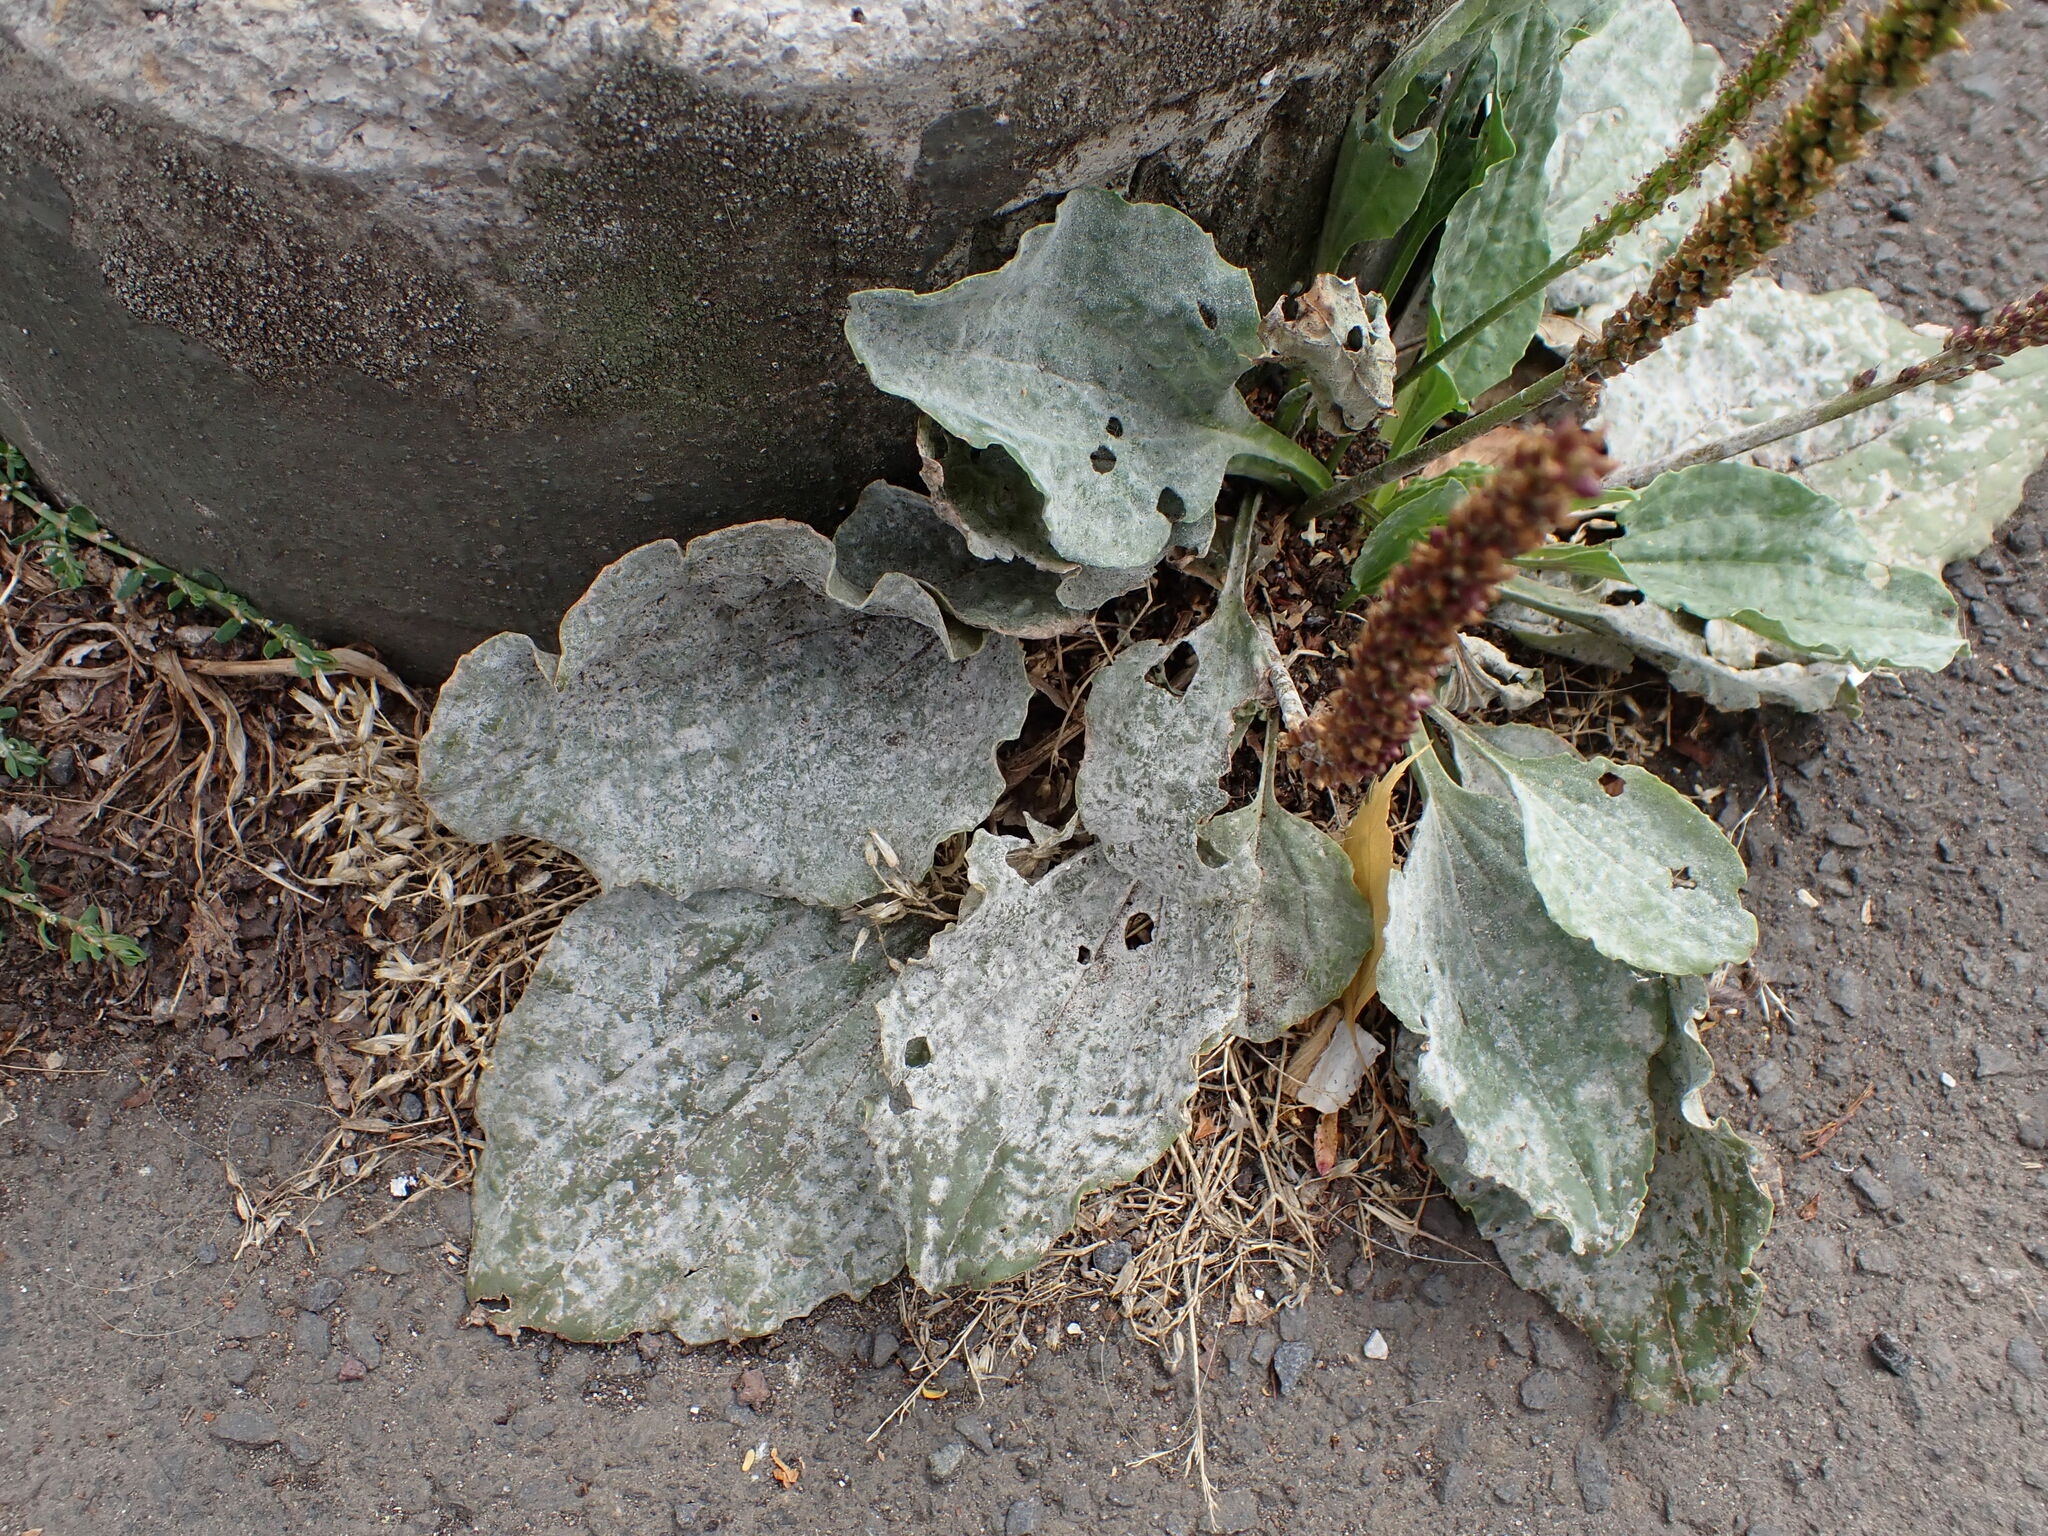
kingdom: Fungi
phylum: Ascomycota
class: Leotiomycetes
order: Helotiales
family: Erysiphaceae
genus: Golovinomyces
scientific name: Golovinomyces sordidus
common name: Plantain mildew
